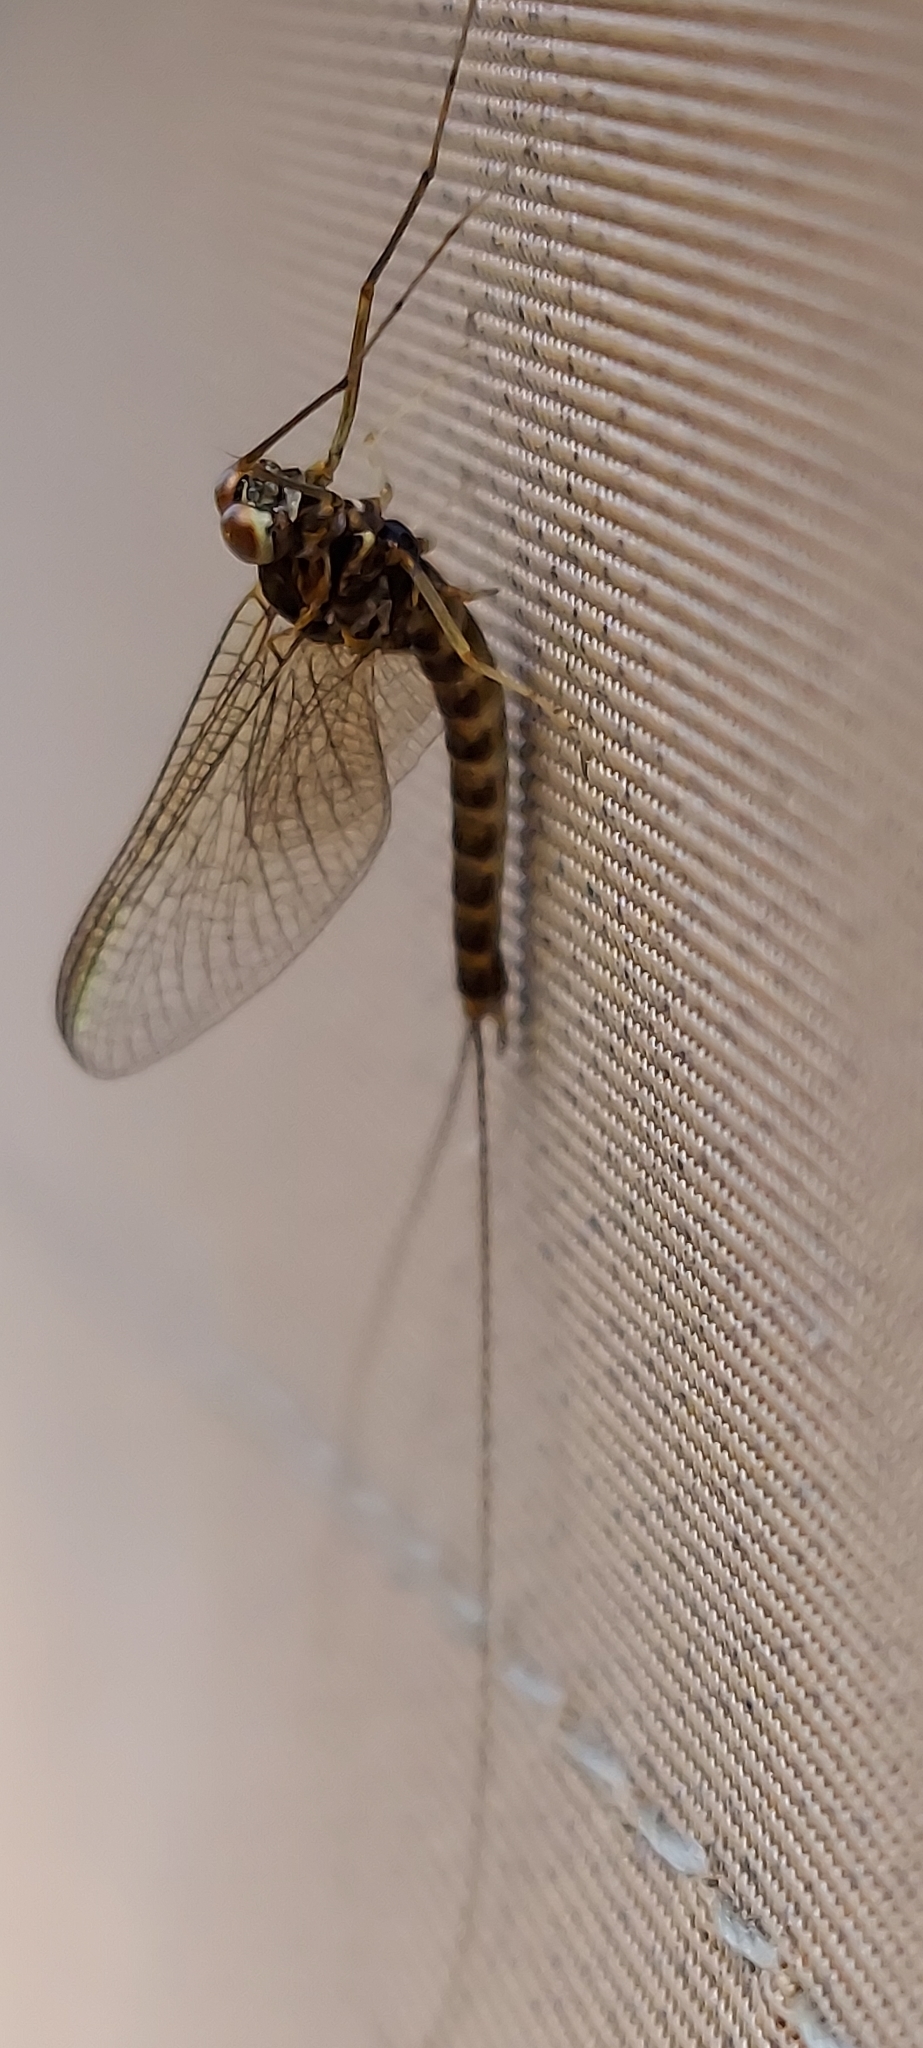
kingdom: Animalia
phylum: Arthropoda
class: Insecta
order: Ephemeroptera
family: Siphlonuridae
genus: Siphlonurus
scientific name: Siphlonurus alternatus
